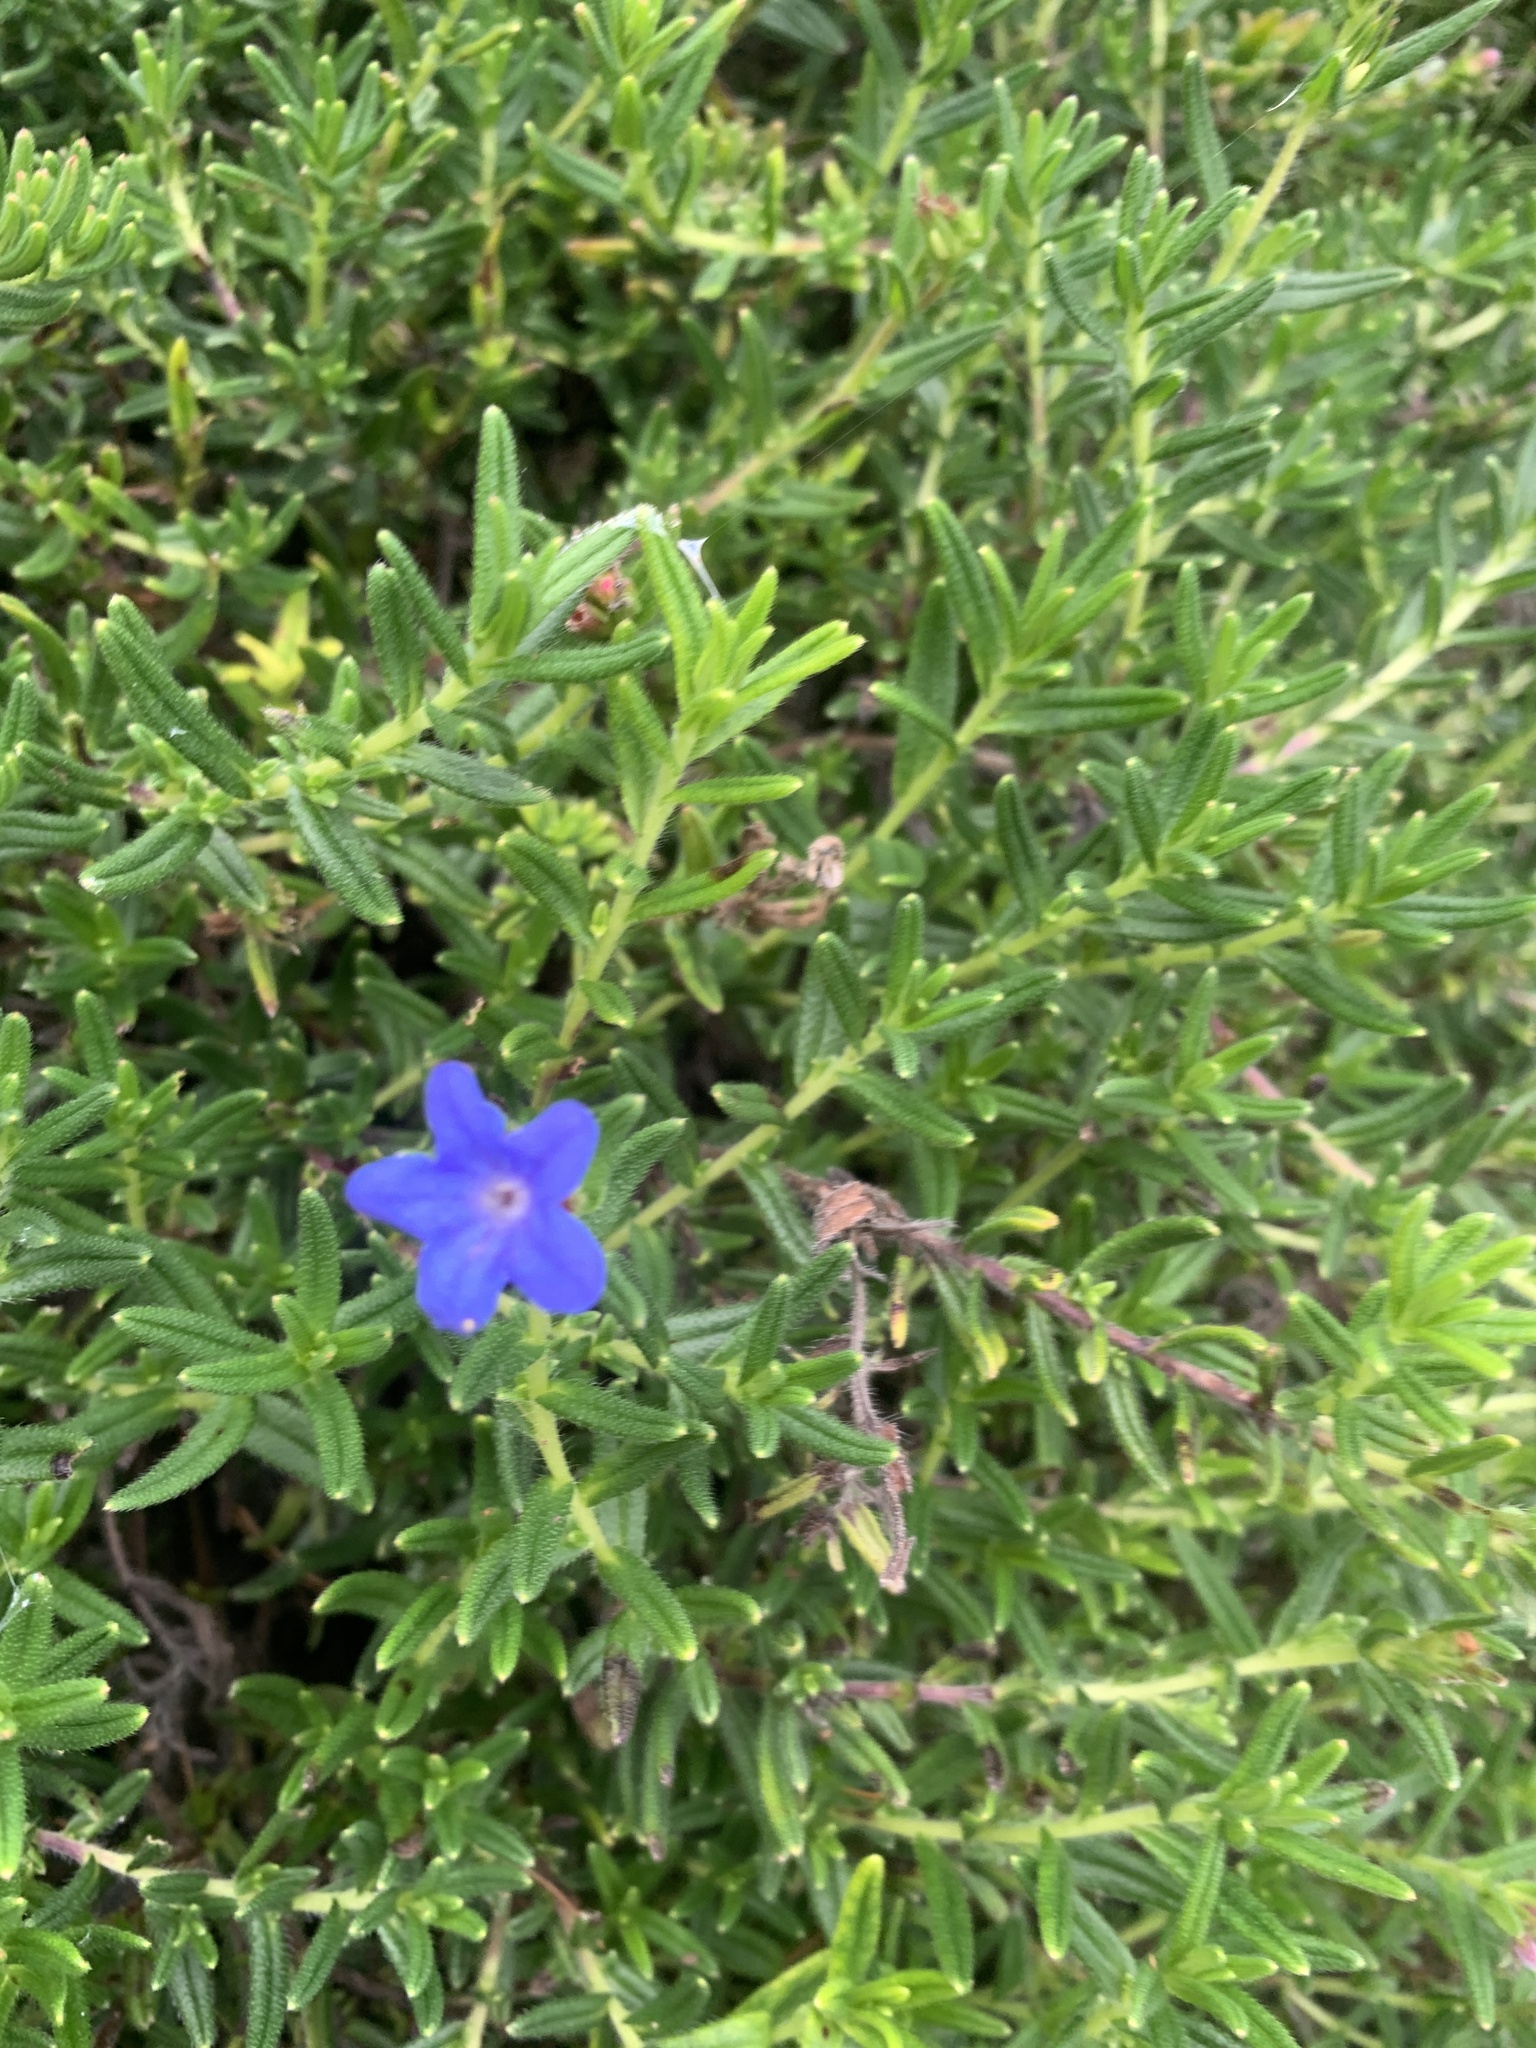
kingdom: Plantae
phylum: Tracheophyta
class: Magnoliopsida
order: Boraginales
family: Boraginaceae
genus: Glandora
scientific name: Glandora prostrata
